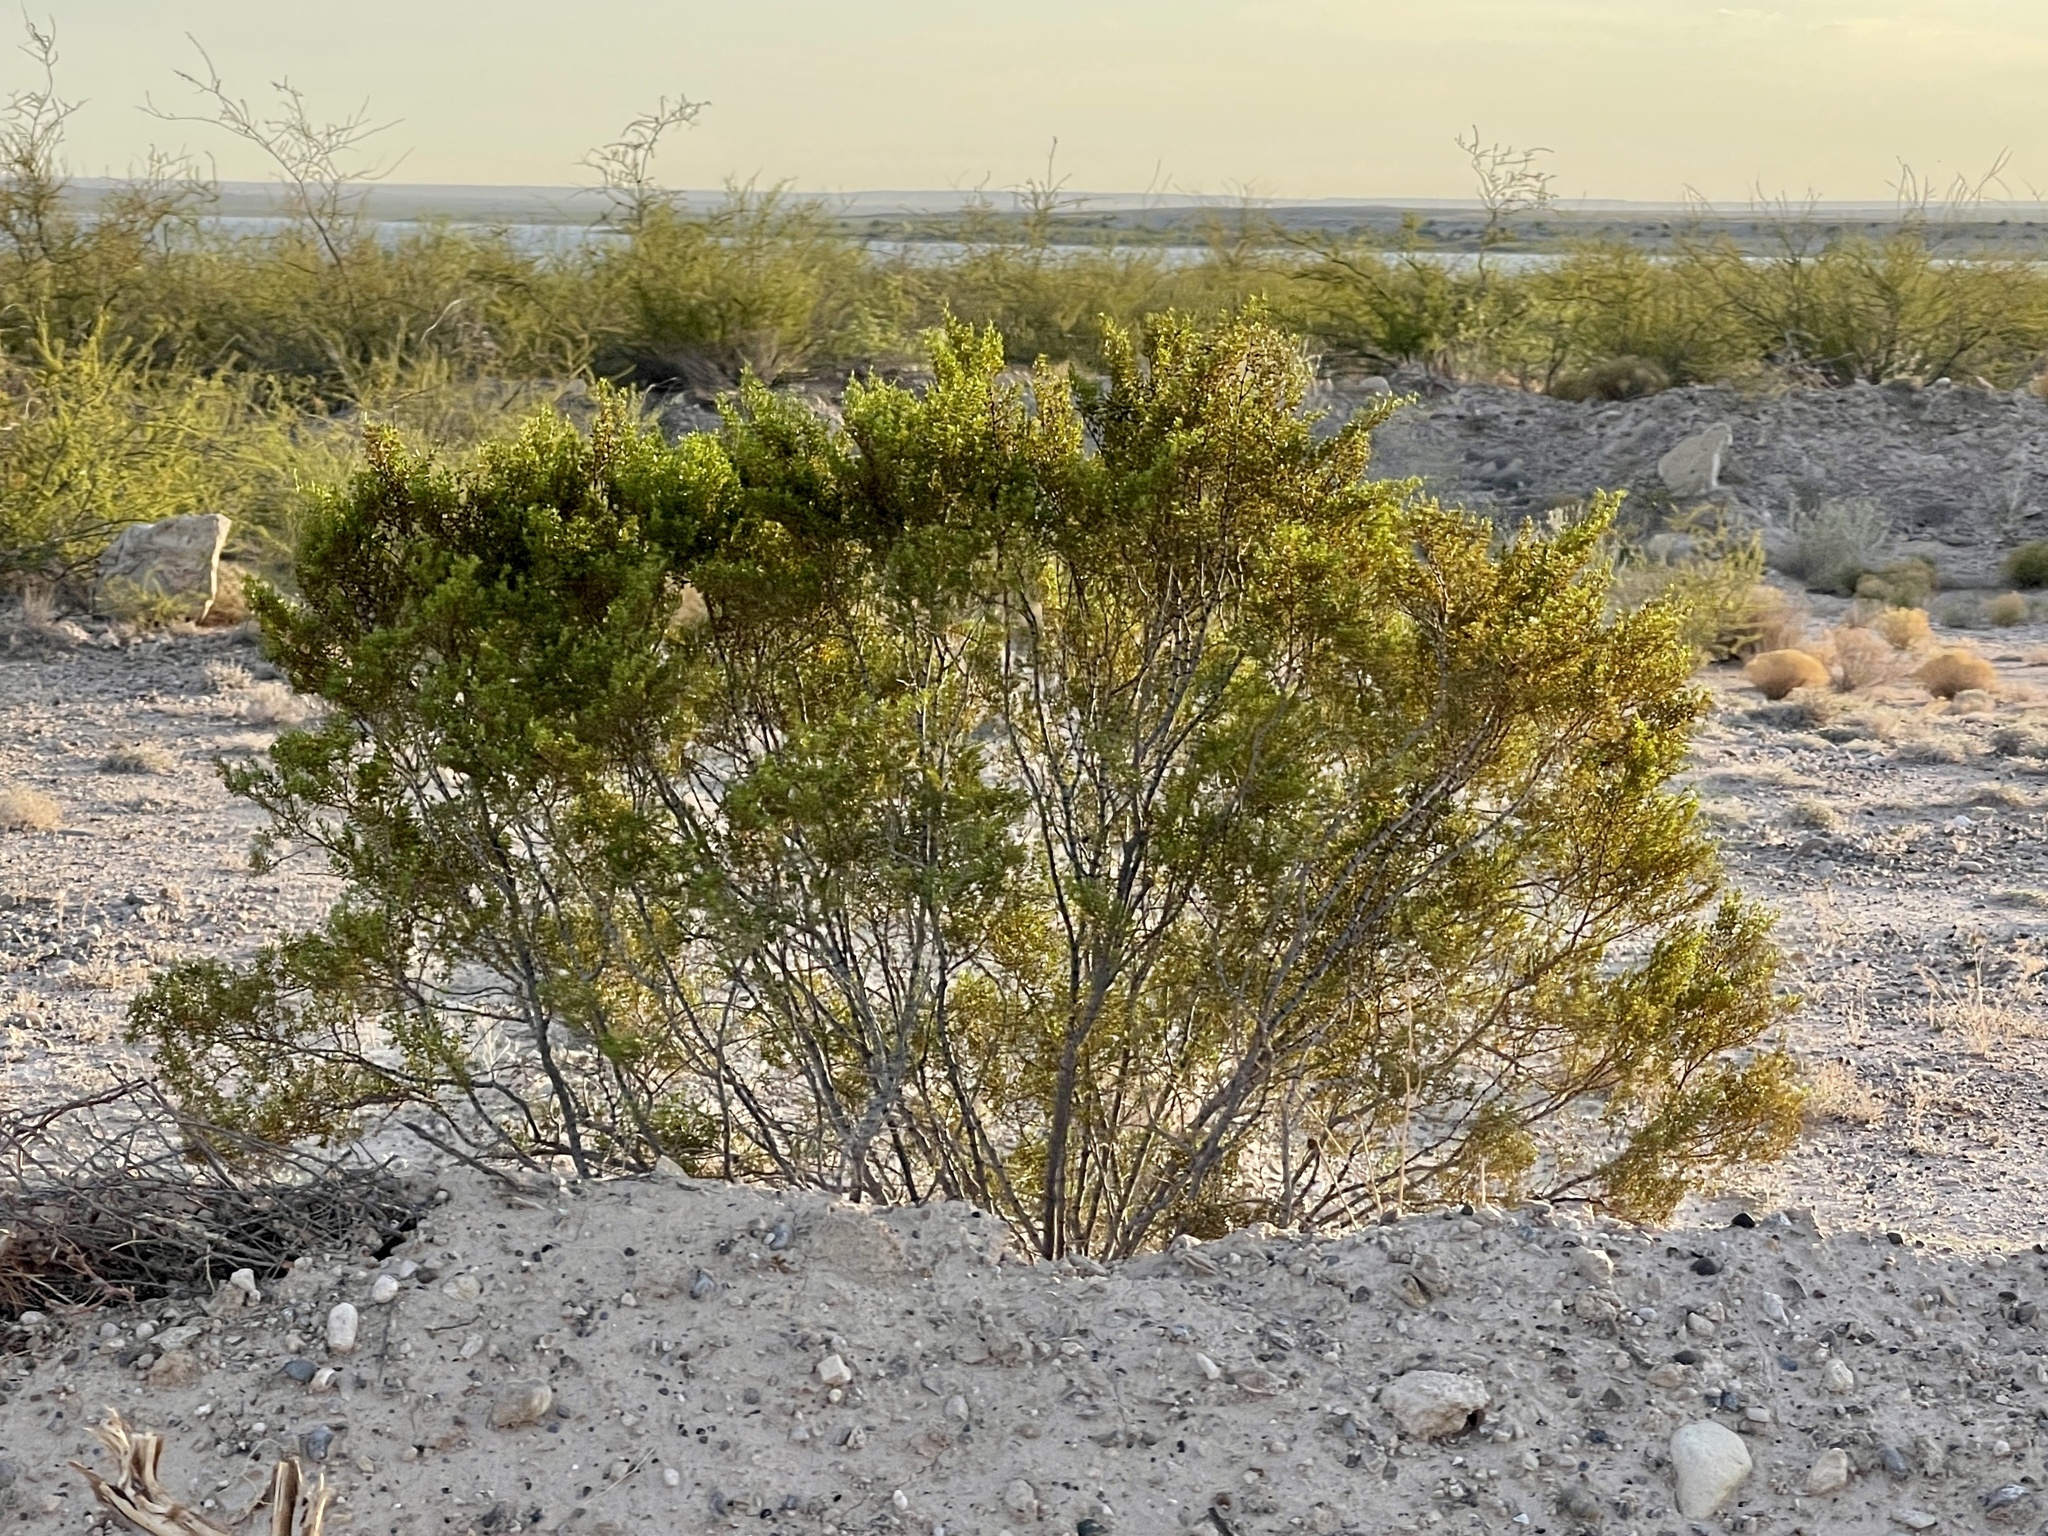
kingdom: Plantae
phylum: Tracheophyta
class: Magnoliopsida
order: Zygophyllales
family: Zygophyllaceae
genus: Larrea
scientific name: Larrea tridentata
